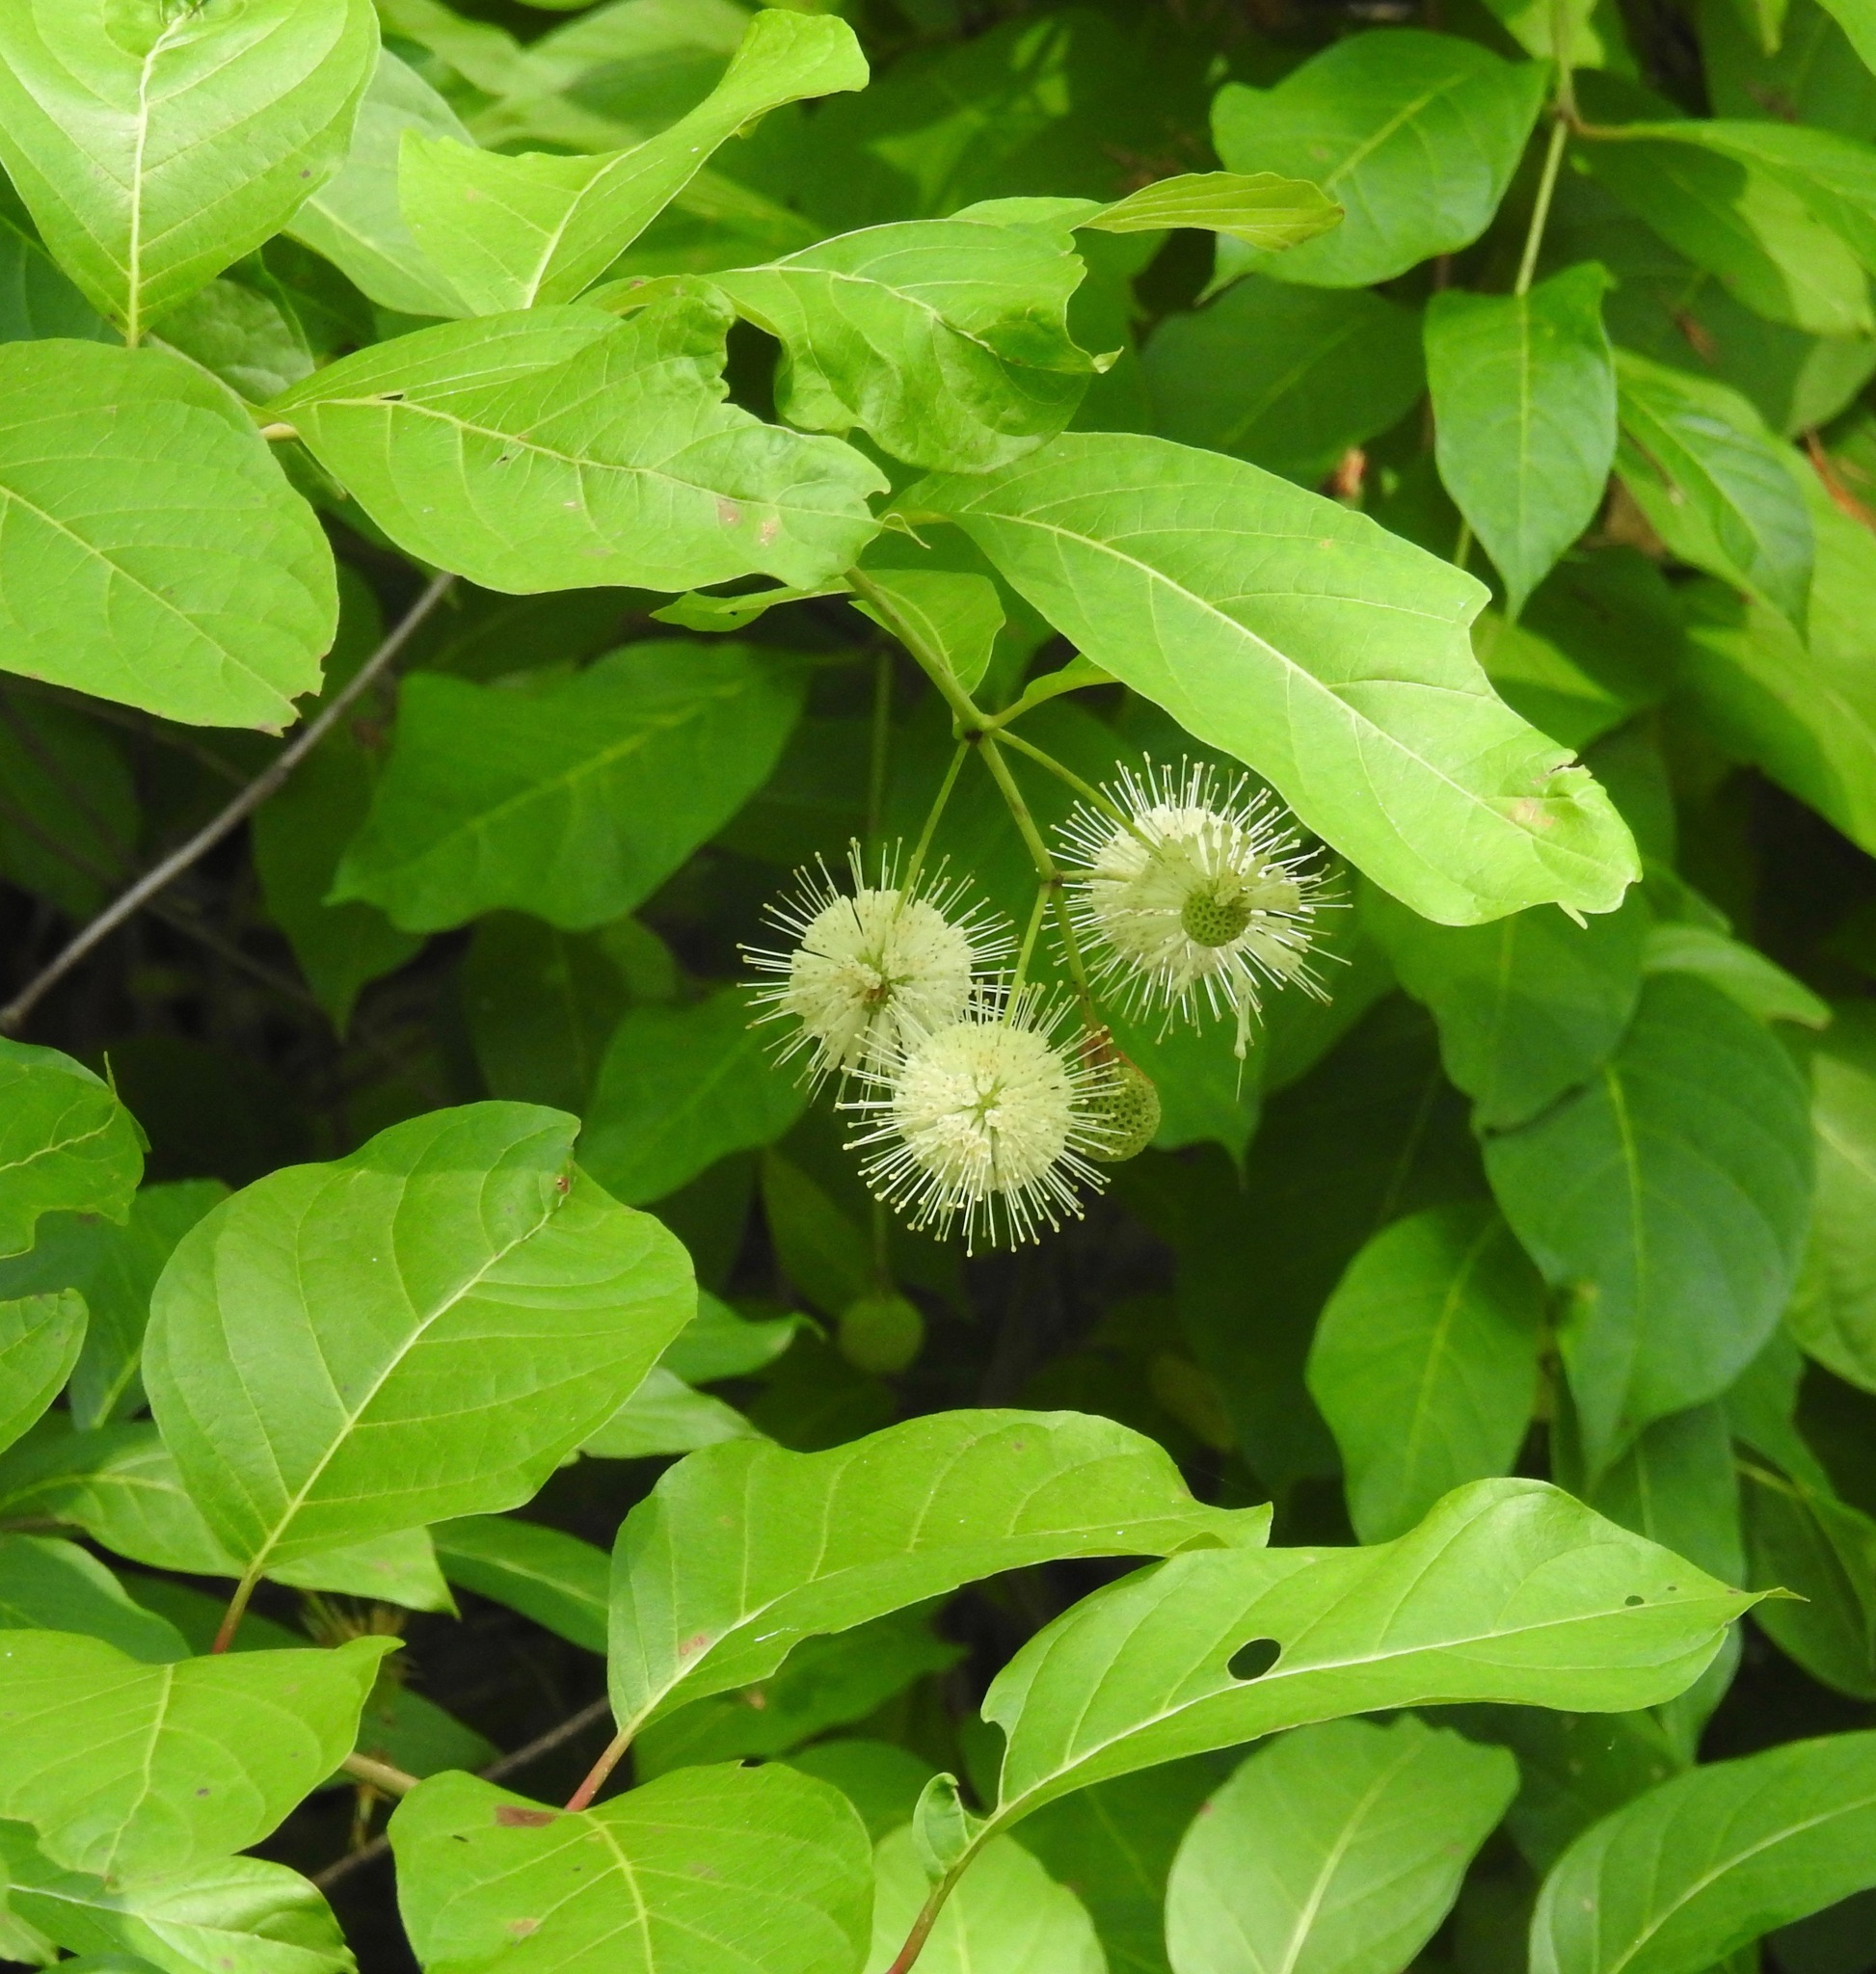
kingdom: Plantae
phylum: Tracheophyta
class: Magnoliopsida
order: Gentianales
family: Rubiaceae
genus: Cephalanthus
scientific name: Cephalanthus occidentalis
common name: Button-willow
